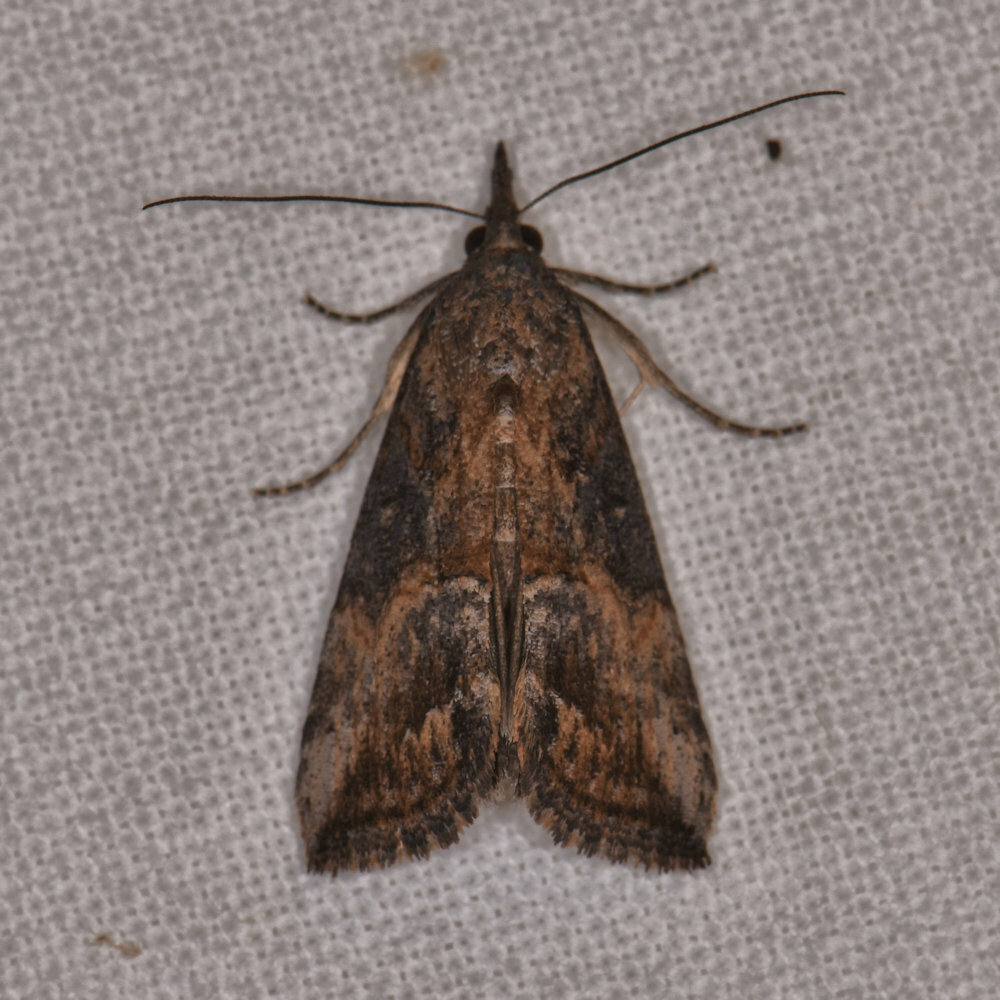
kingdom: Animalia
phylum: Arthropoda
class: Insecta
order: Lepidoptera
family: Erebidae
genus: Hypena
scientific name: Hypena scabra
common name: Green cloverworm
